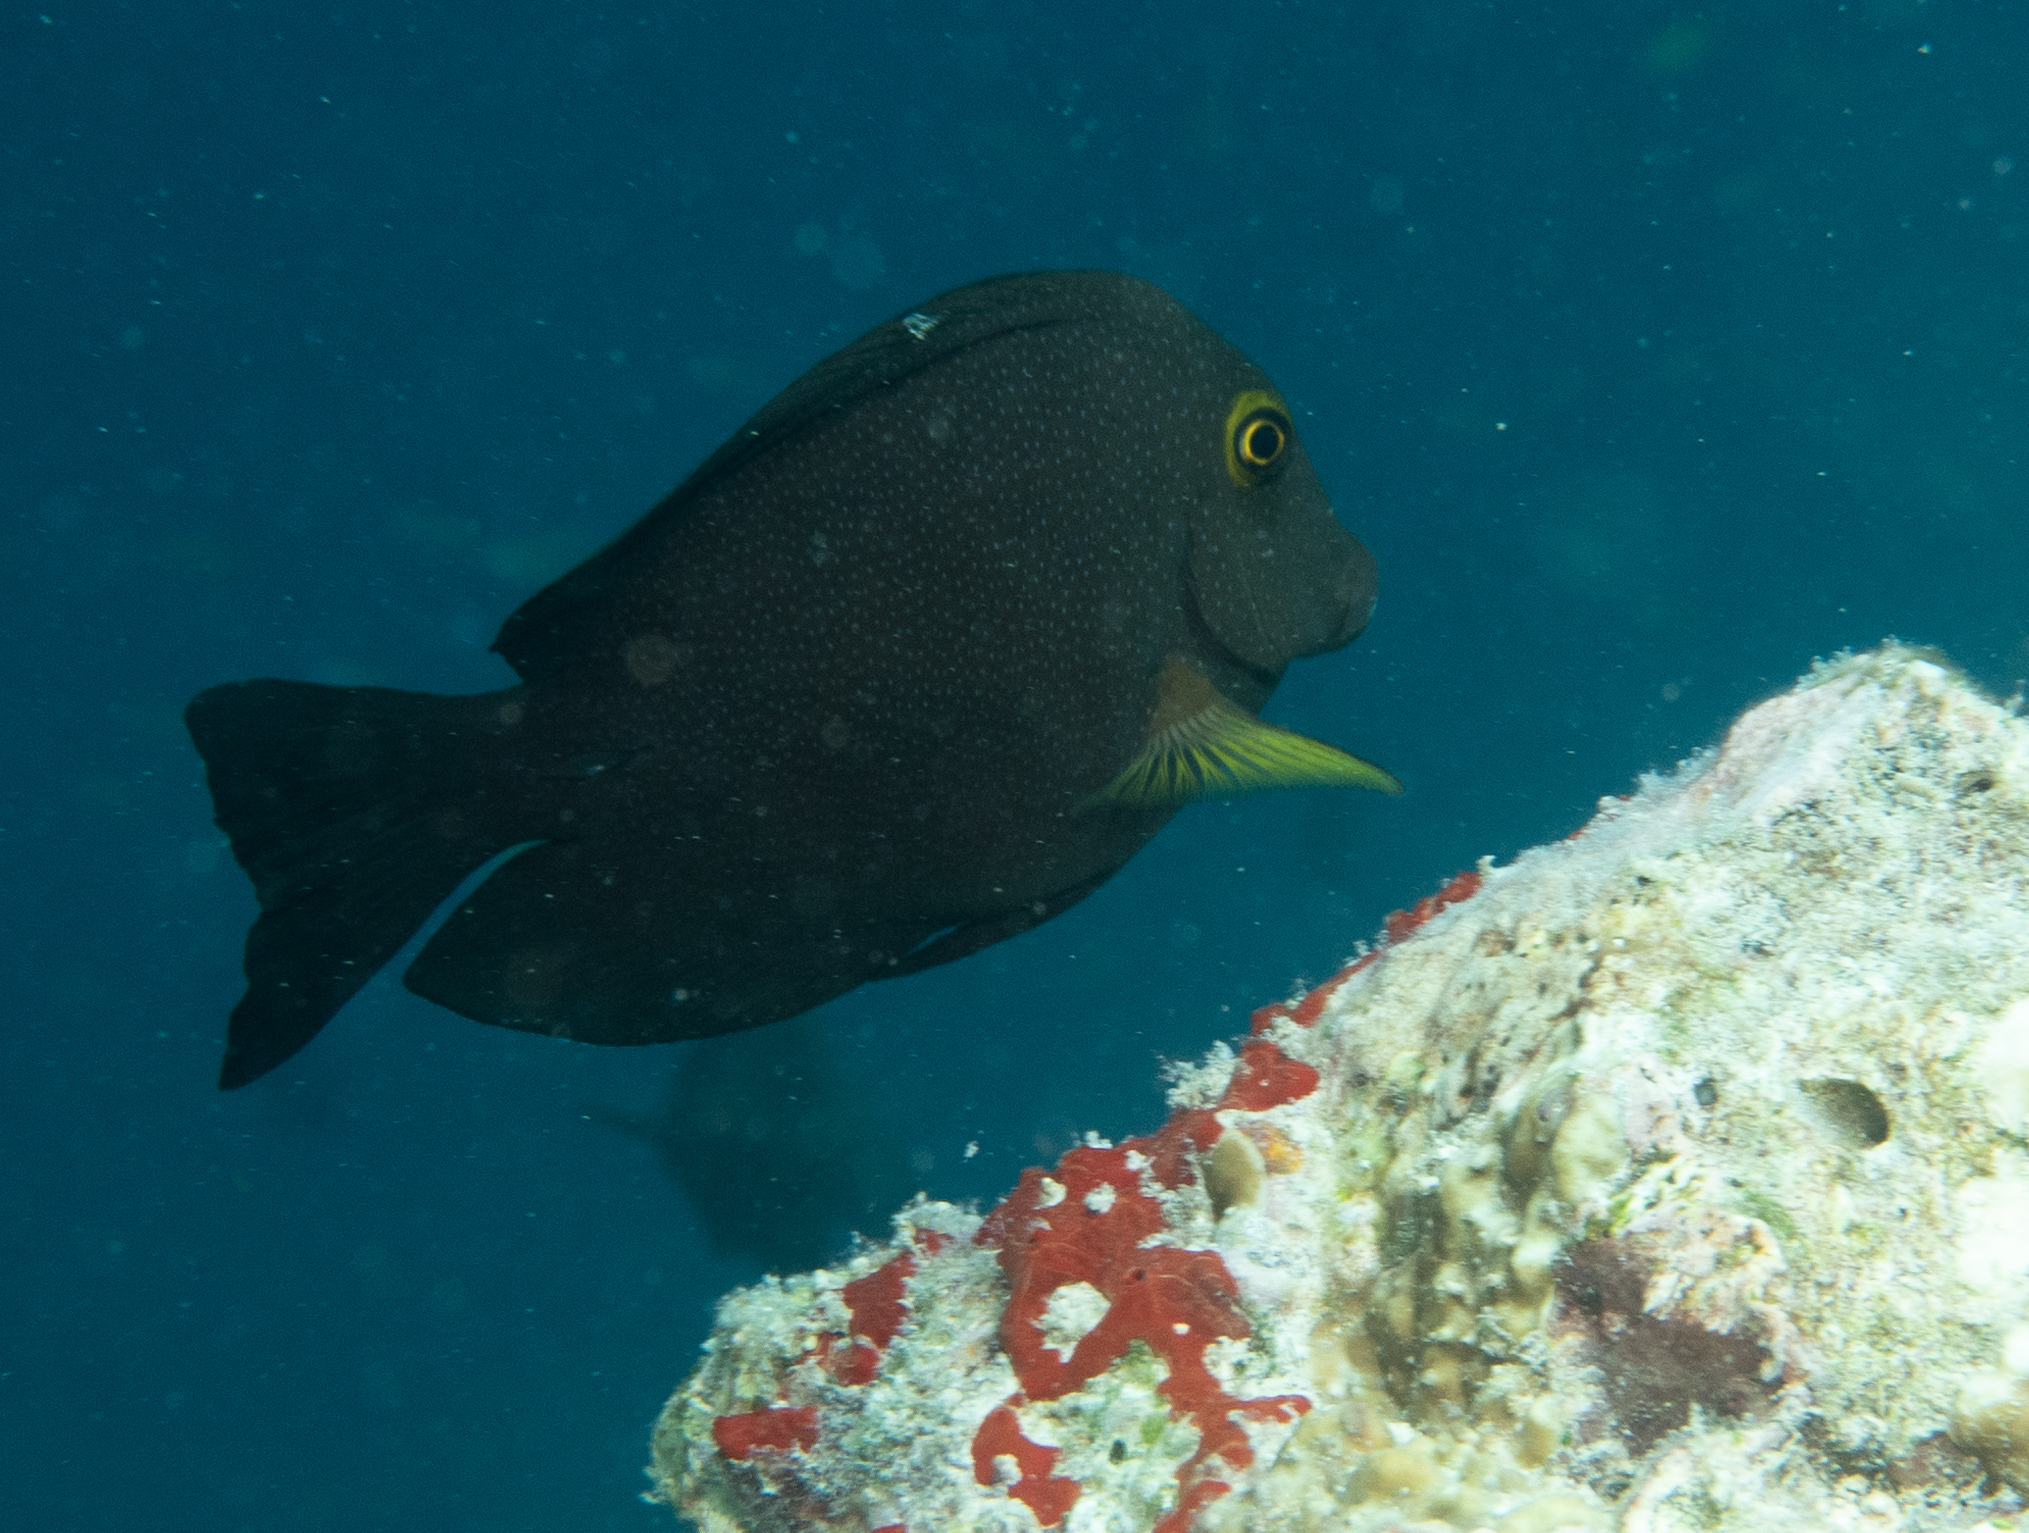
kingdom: Animalia
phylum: Chordata
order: Perciformes
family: Acanthuridae
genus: Ctenochaetus
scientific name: Ctenochaetus truncatus
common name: Indian gold-ring bristle-tooth
